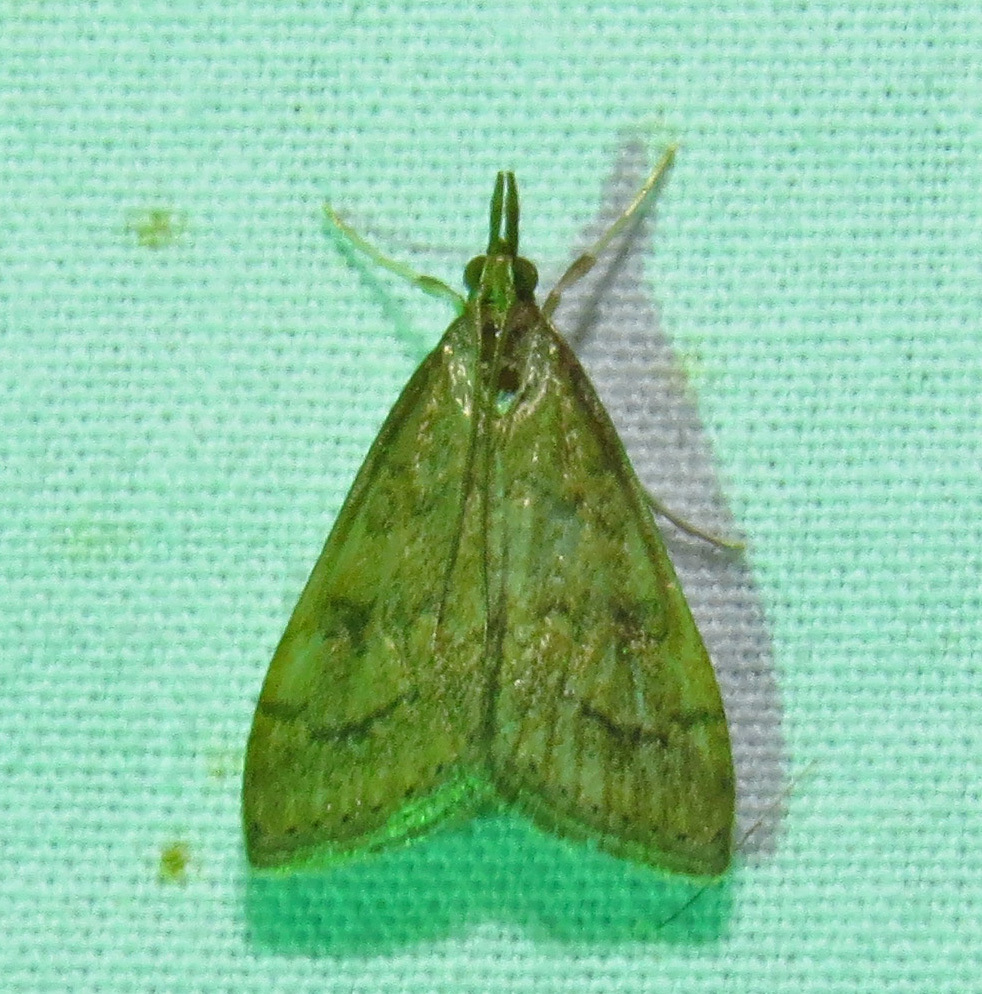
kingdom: Animalia
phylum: Arthropoda
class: Insecta
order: Lepidoptera
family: Crambidae
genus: Udea
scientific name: Udea rubigalis
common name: Celery leaftier moth
